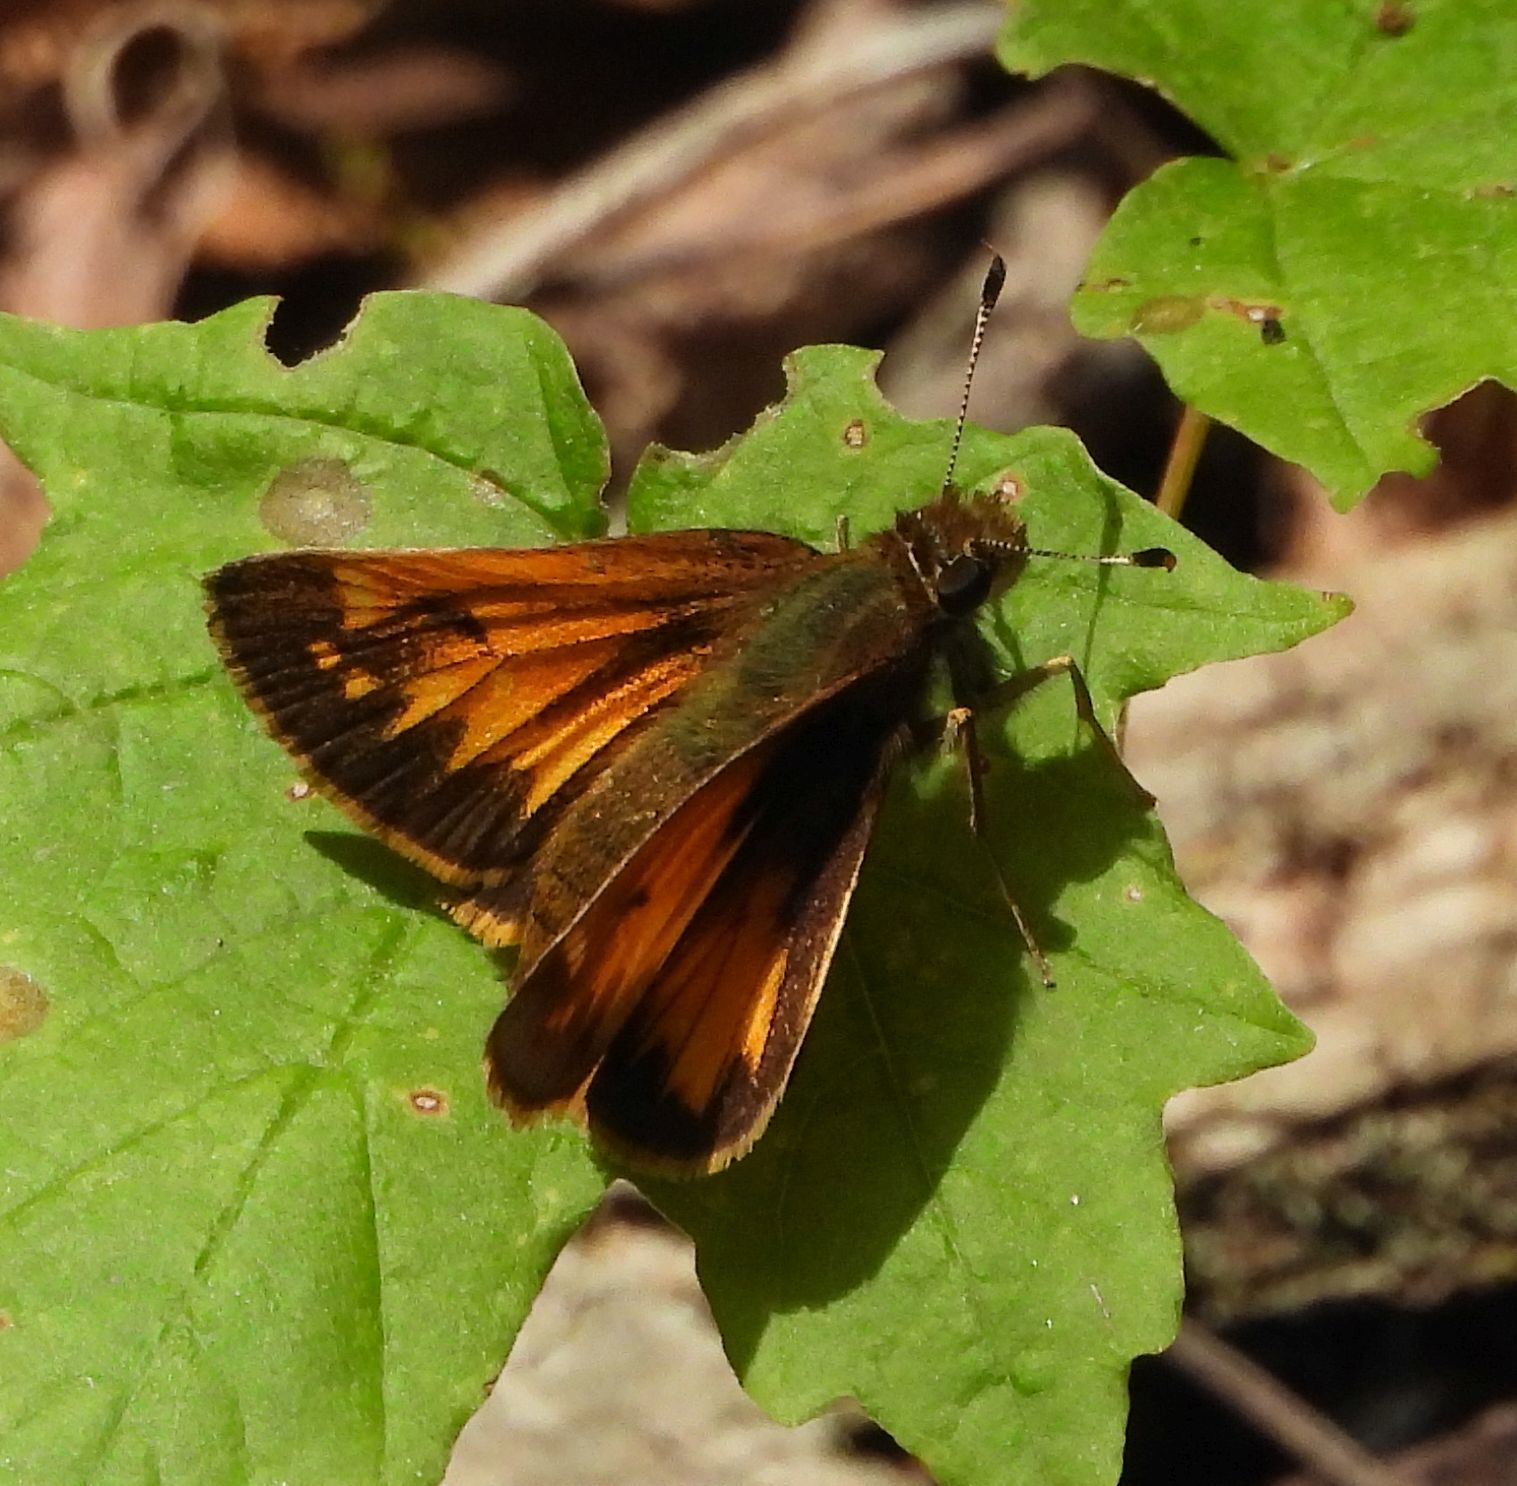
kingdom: Animalia
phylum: Arthropoda
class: Insecta
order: Lepidoptera
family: Hesperiidae
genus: Lon
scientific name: Lon hobomok
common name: Hobomok skipper
